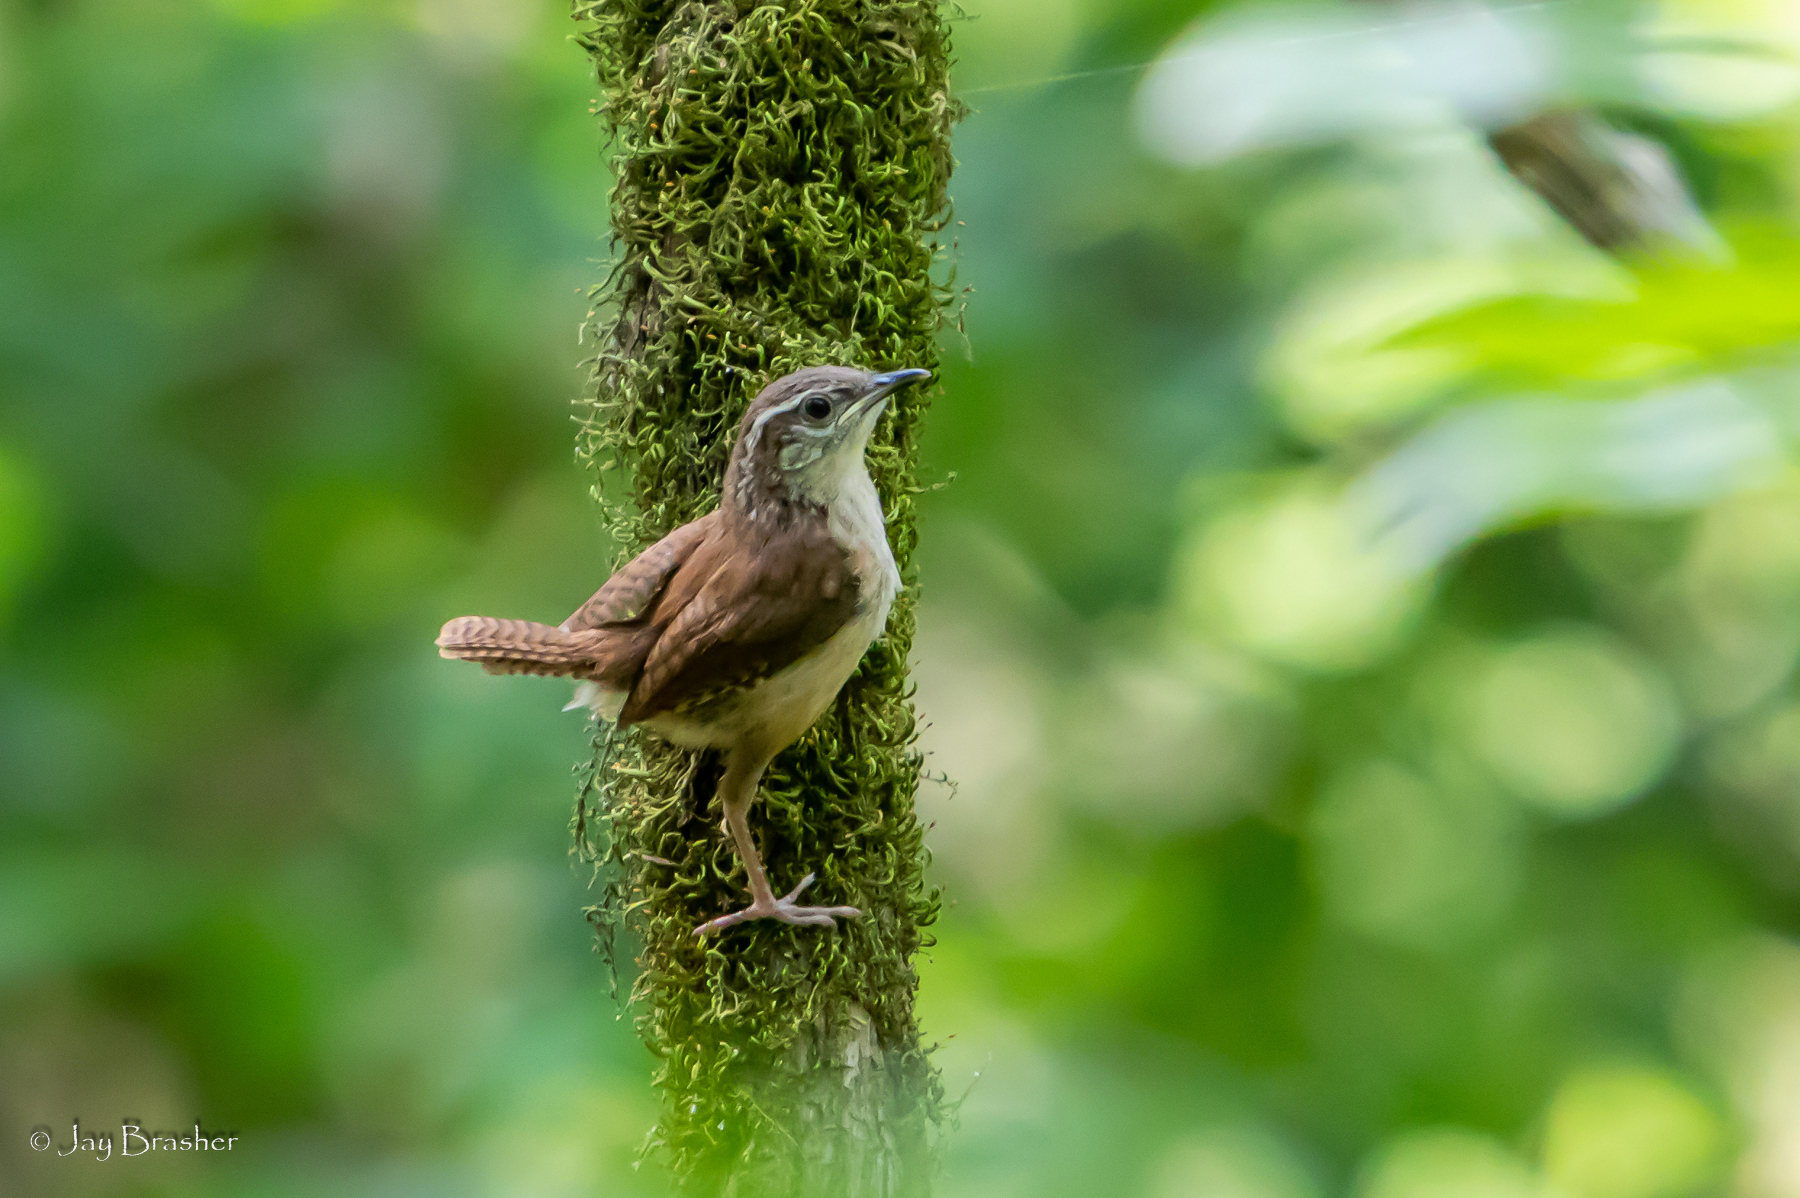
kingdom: Animalia
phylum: Chordata
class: Aves
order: Passeriformes
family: Troglodytidae
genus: Thryothorus
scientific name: Thryothorus ludovicianus
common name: Carolina wren
